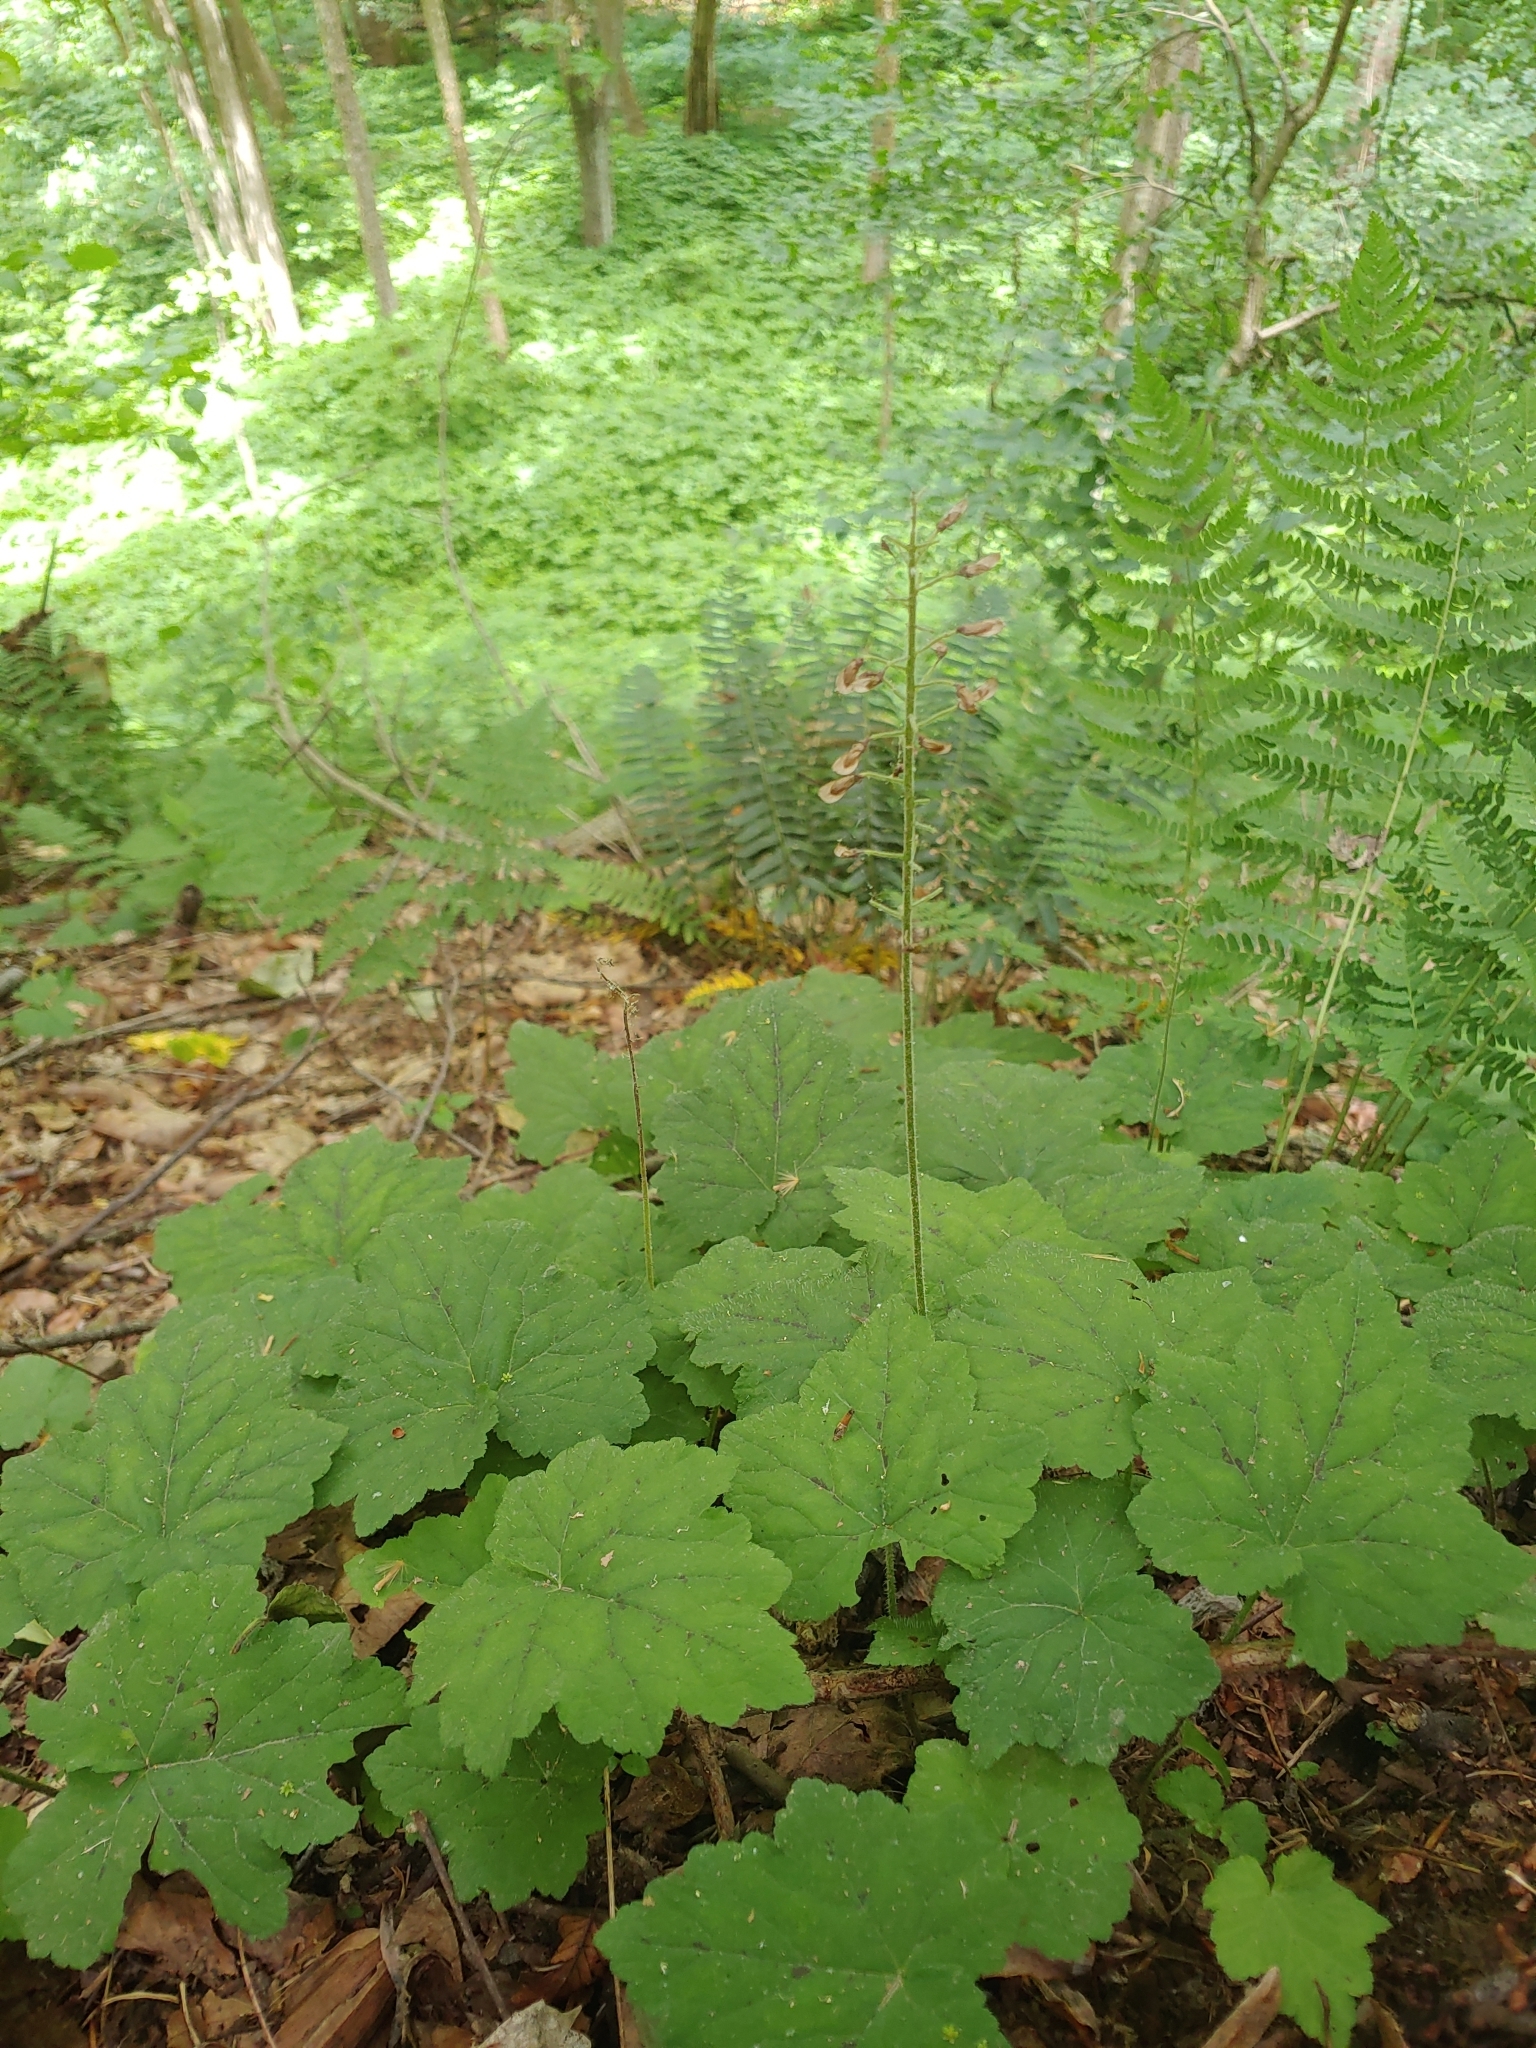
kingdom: Plantae
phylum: Tracheophyta
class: Magnoliopsida
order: Saxifragales
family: Saxifragaceae
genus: Tiarella
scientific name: Tiarella stolonifera
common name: Stoloniferous foamflower
